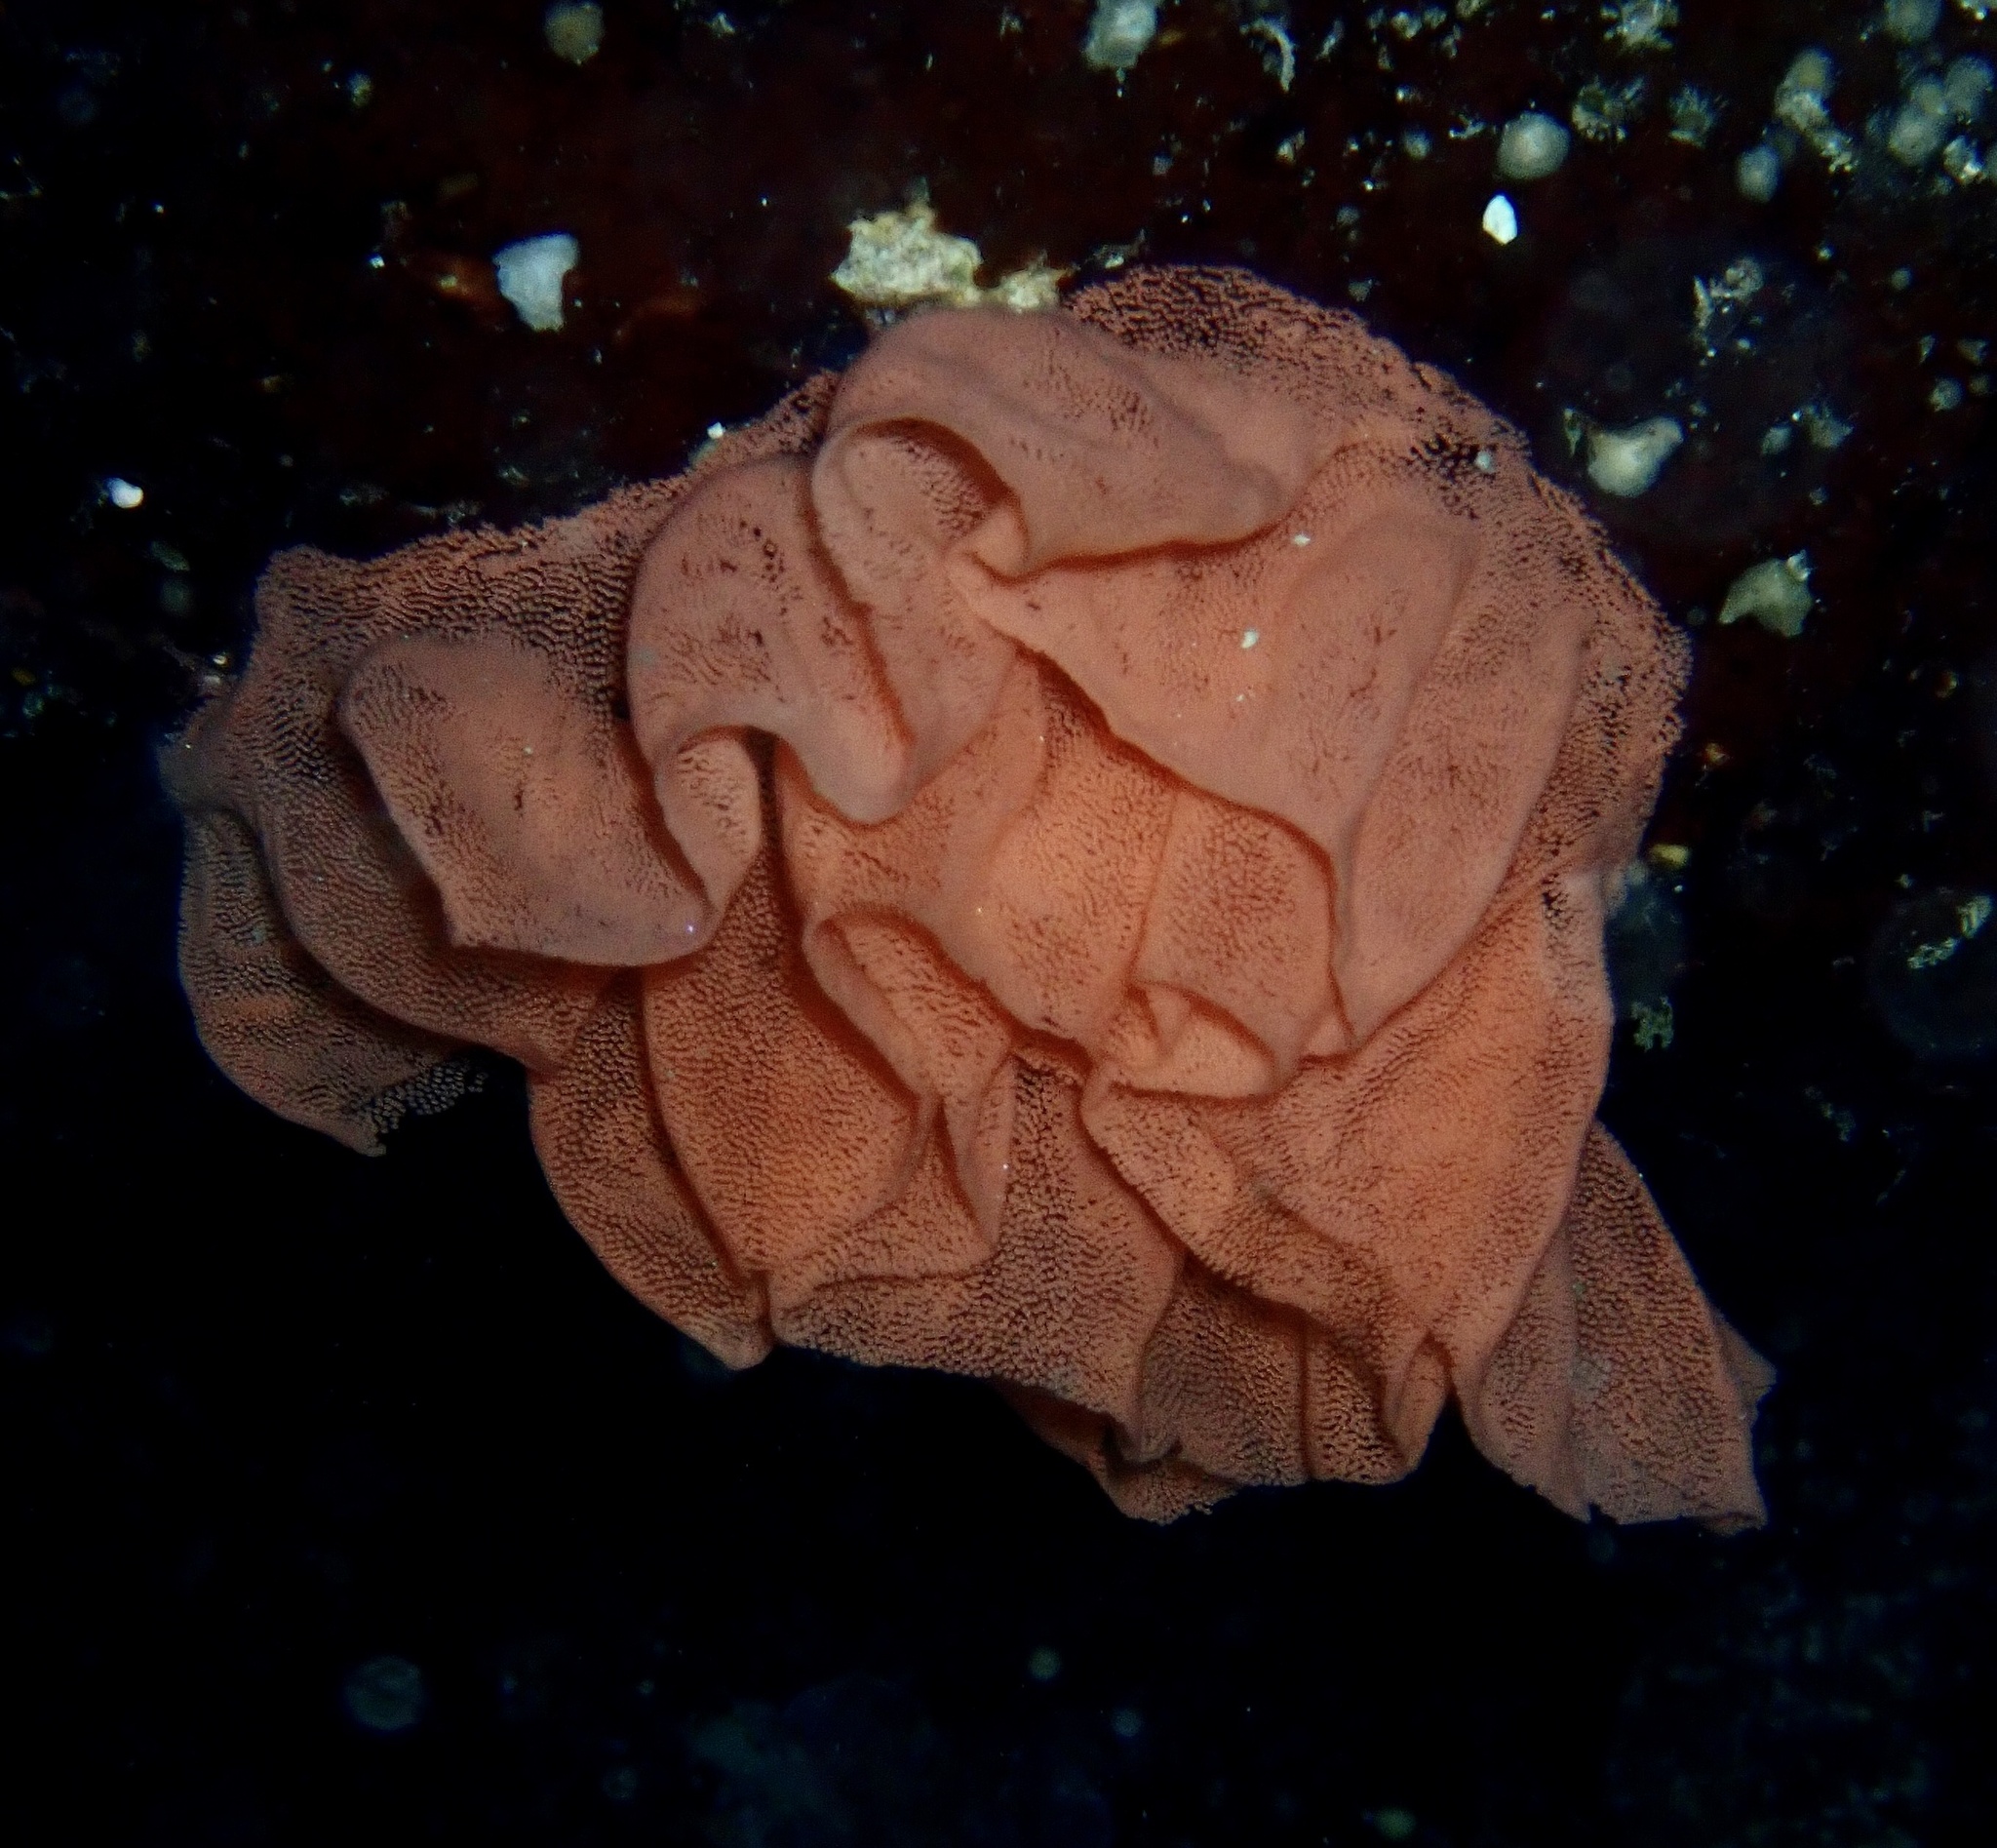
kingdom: Animalia
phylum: Mollusca
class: Gastropoda
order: Nudibranchia
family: Hexabranchidae
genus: Hexabranchus
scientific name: Hexabranchus sanguineus
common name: Spanish dancer
